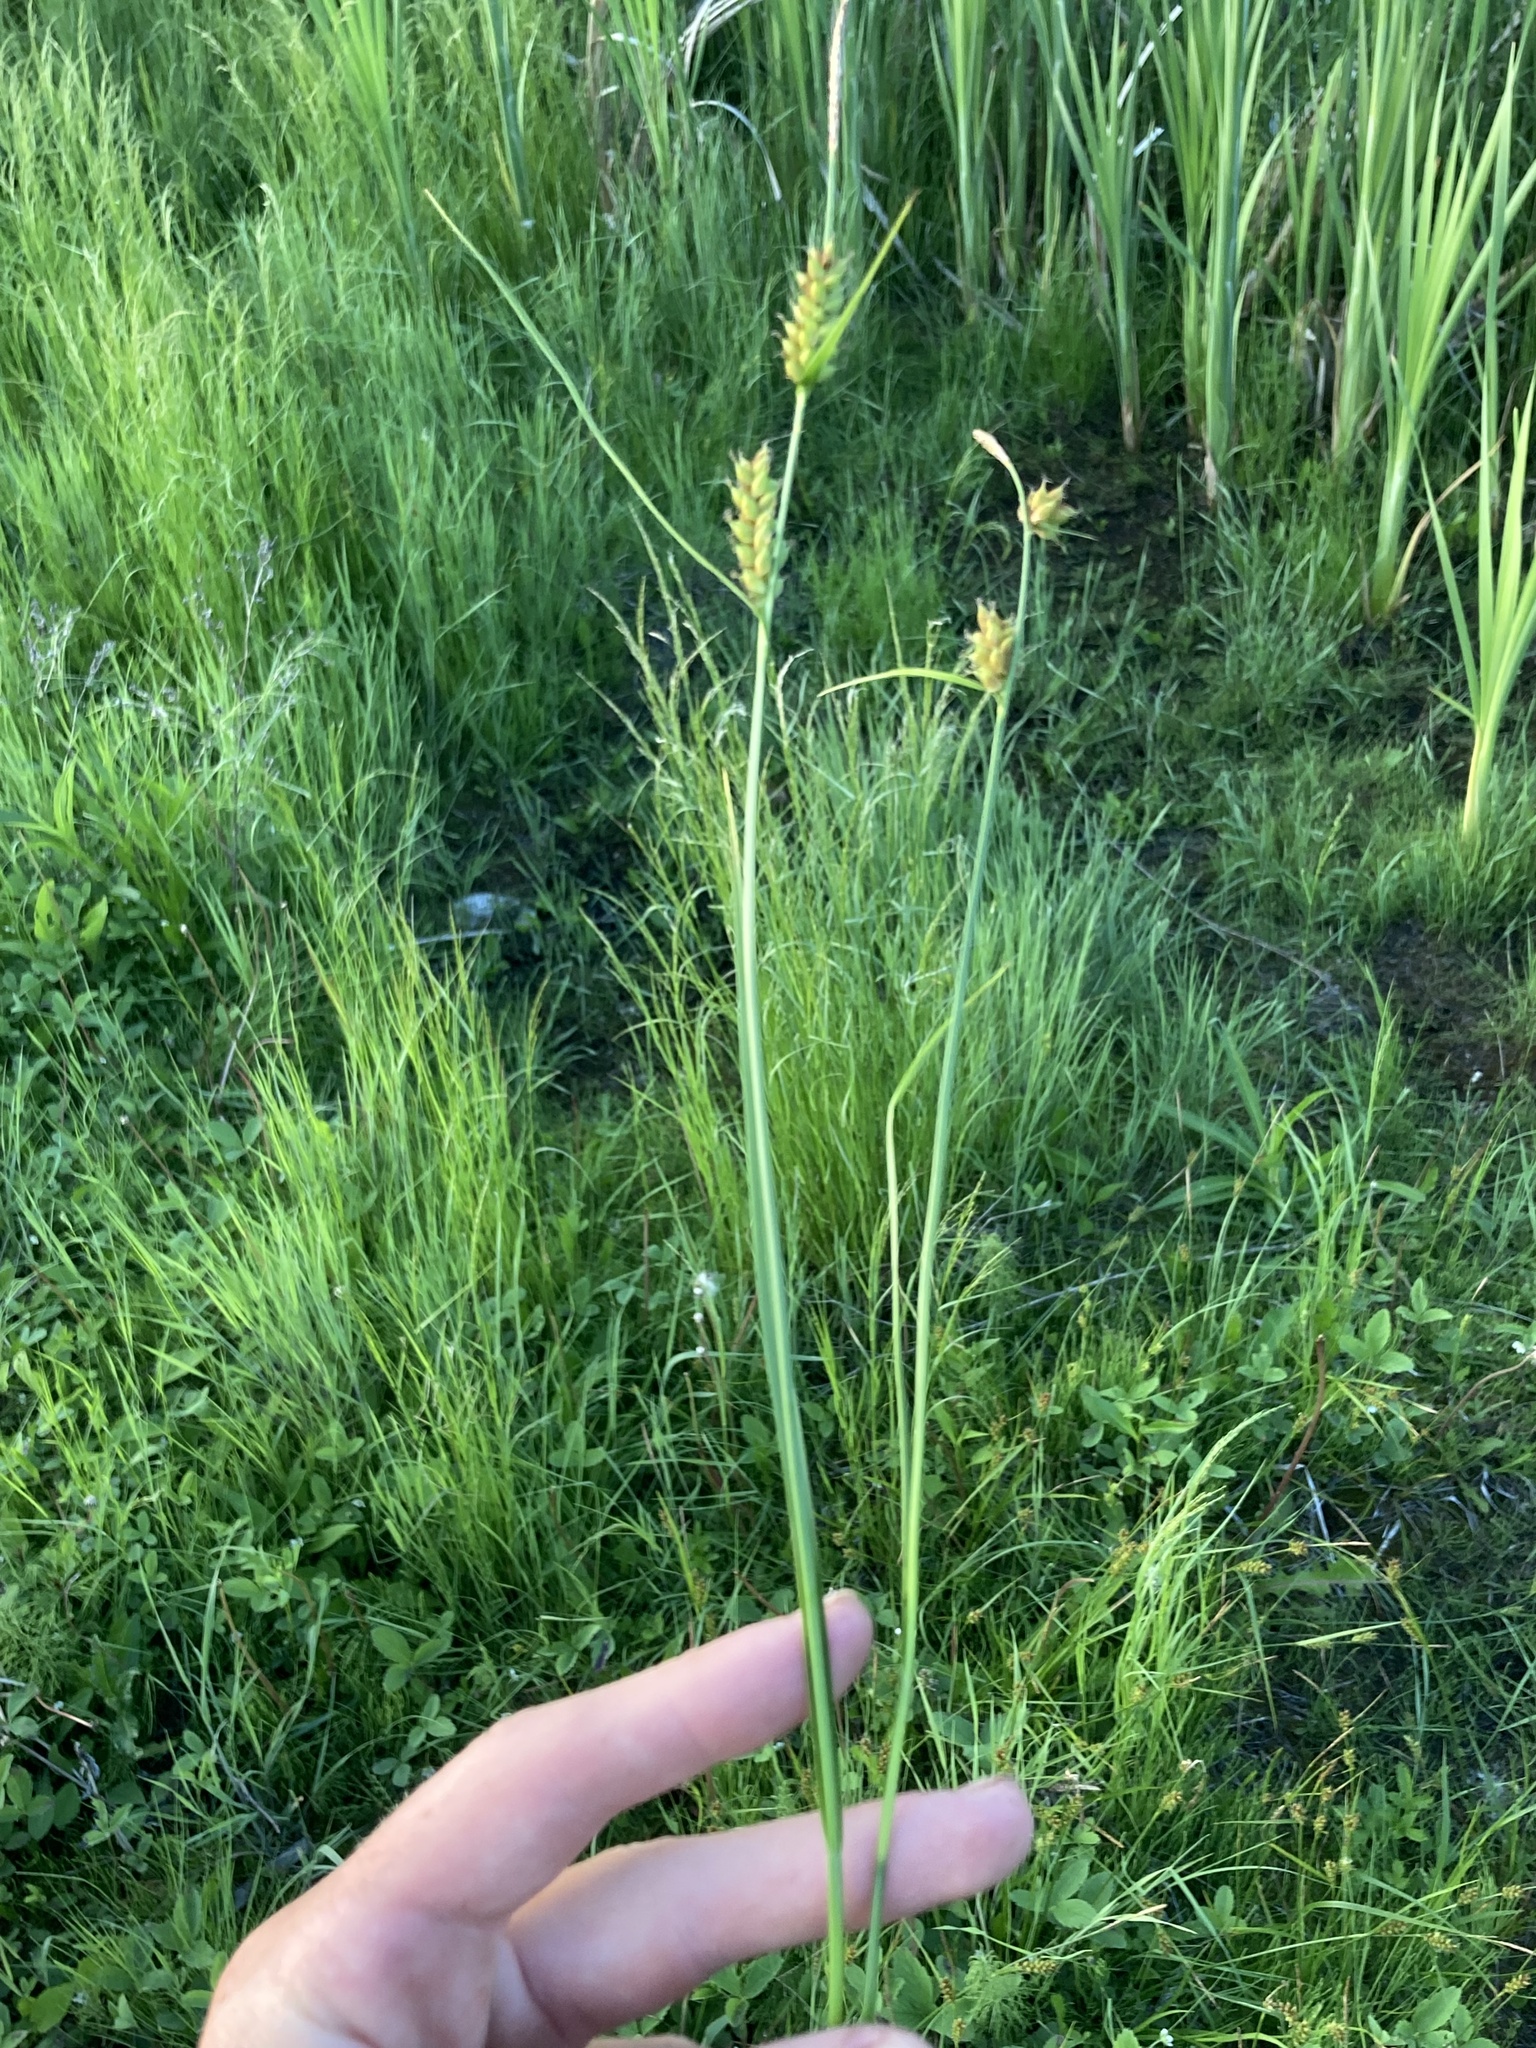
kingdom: Plantae
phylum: Tracheophyta
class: Liliopsida
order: Poales
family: Cyperaceae
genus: Carex
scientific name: Carex houghtoniana
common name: Houghton's sedge
